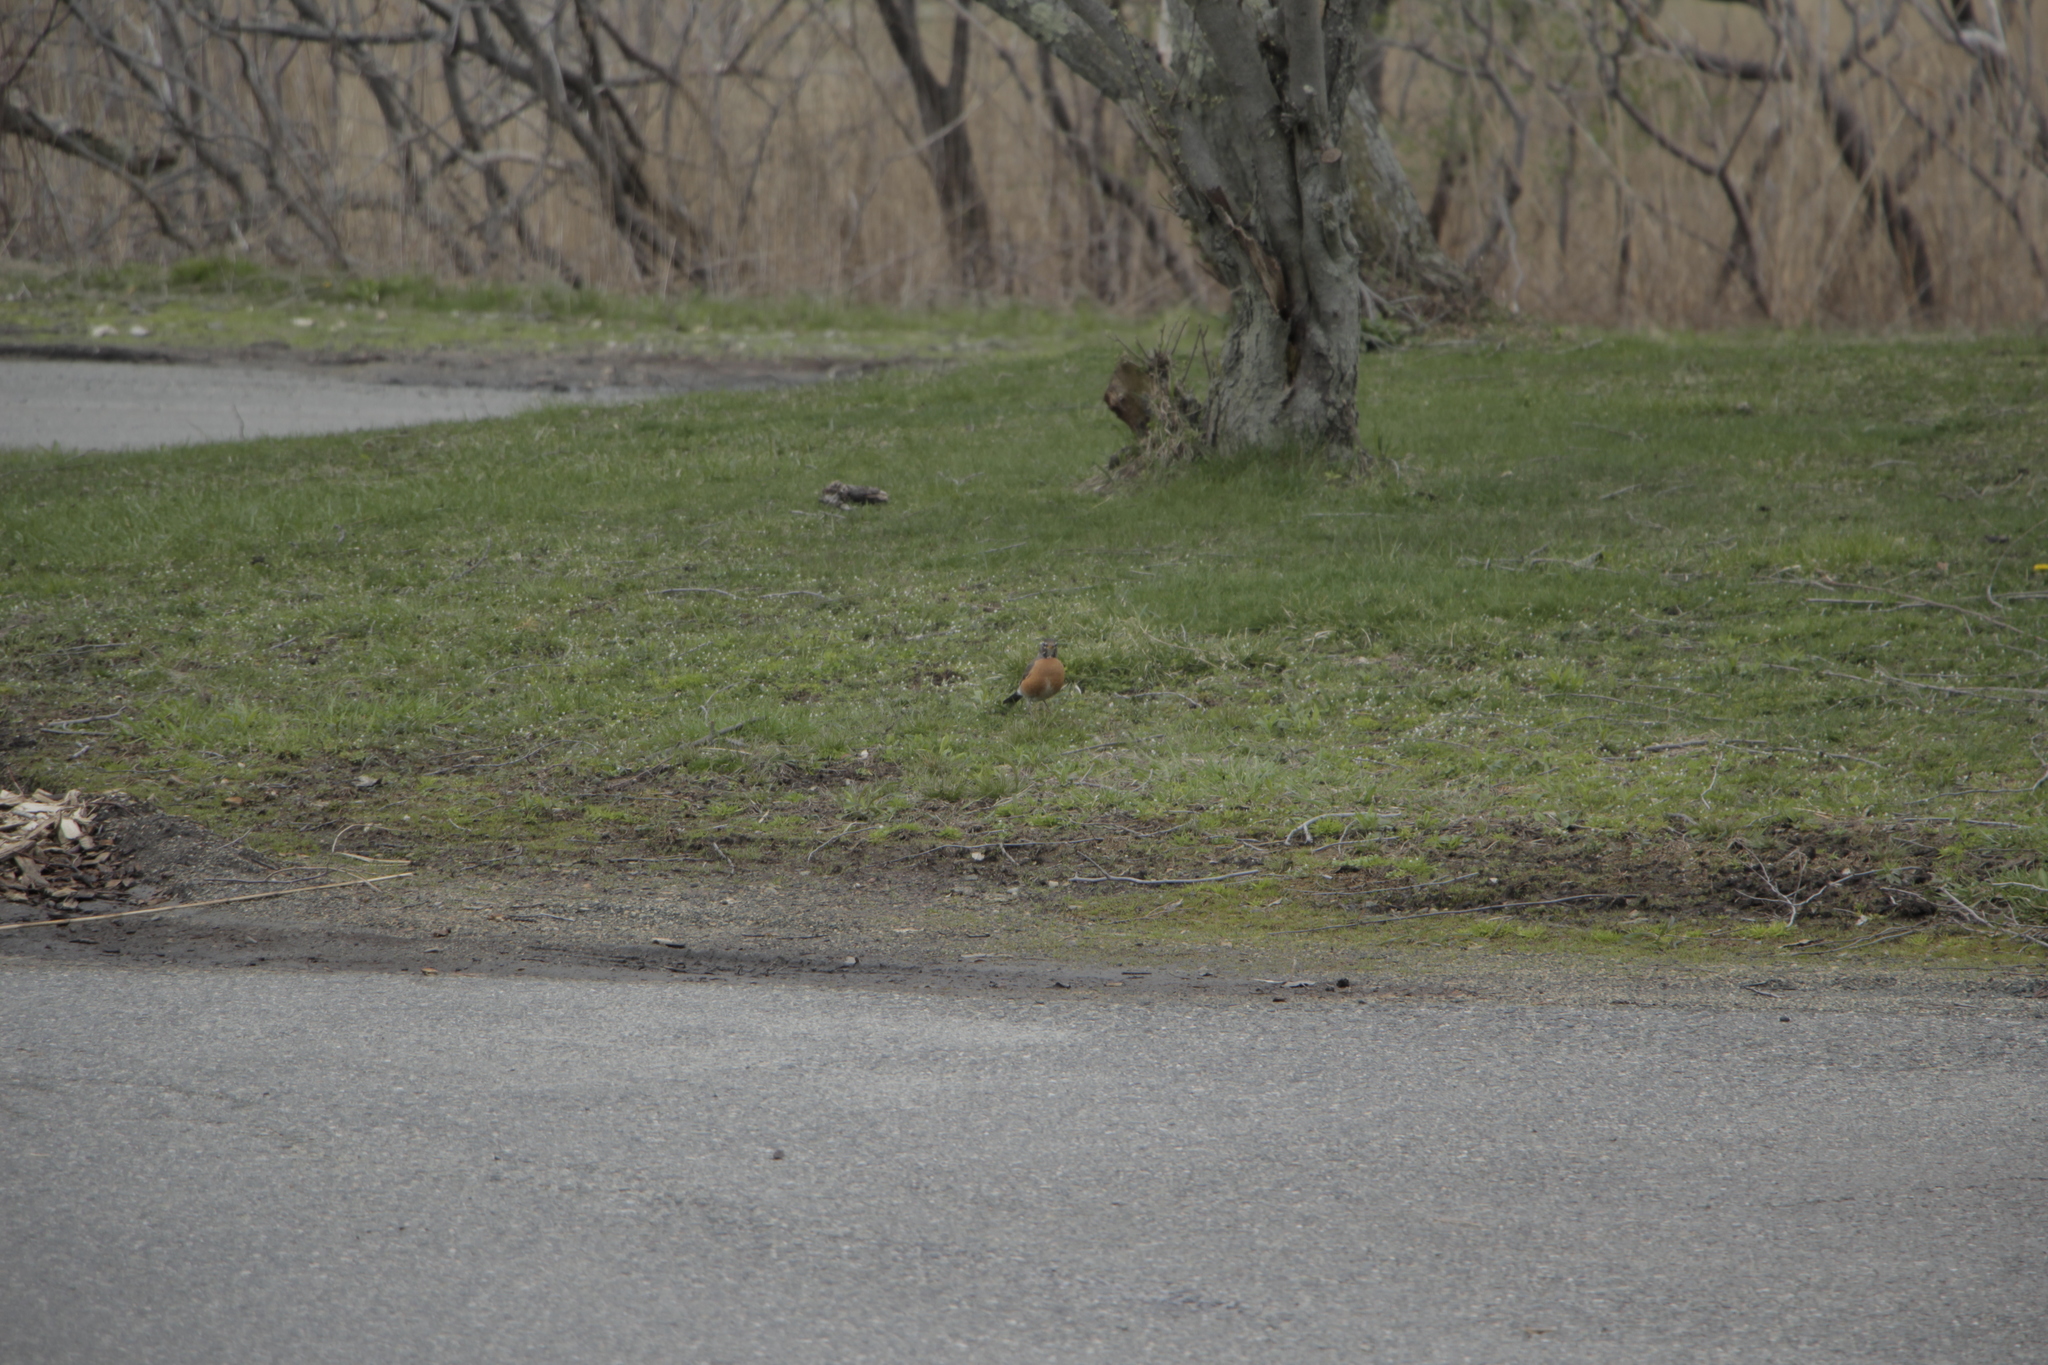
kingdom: Animalia
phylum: Chordata
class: Aves
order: Passeriformes
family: Turdidae
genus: Turdus
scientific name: Turdus migratorius
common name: American robin
